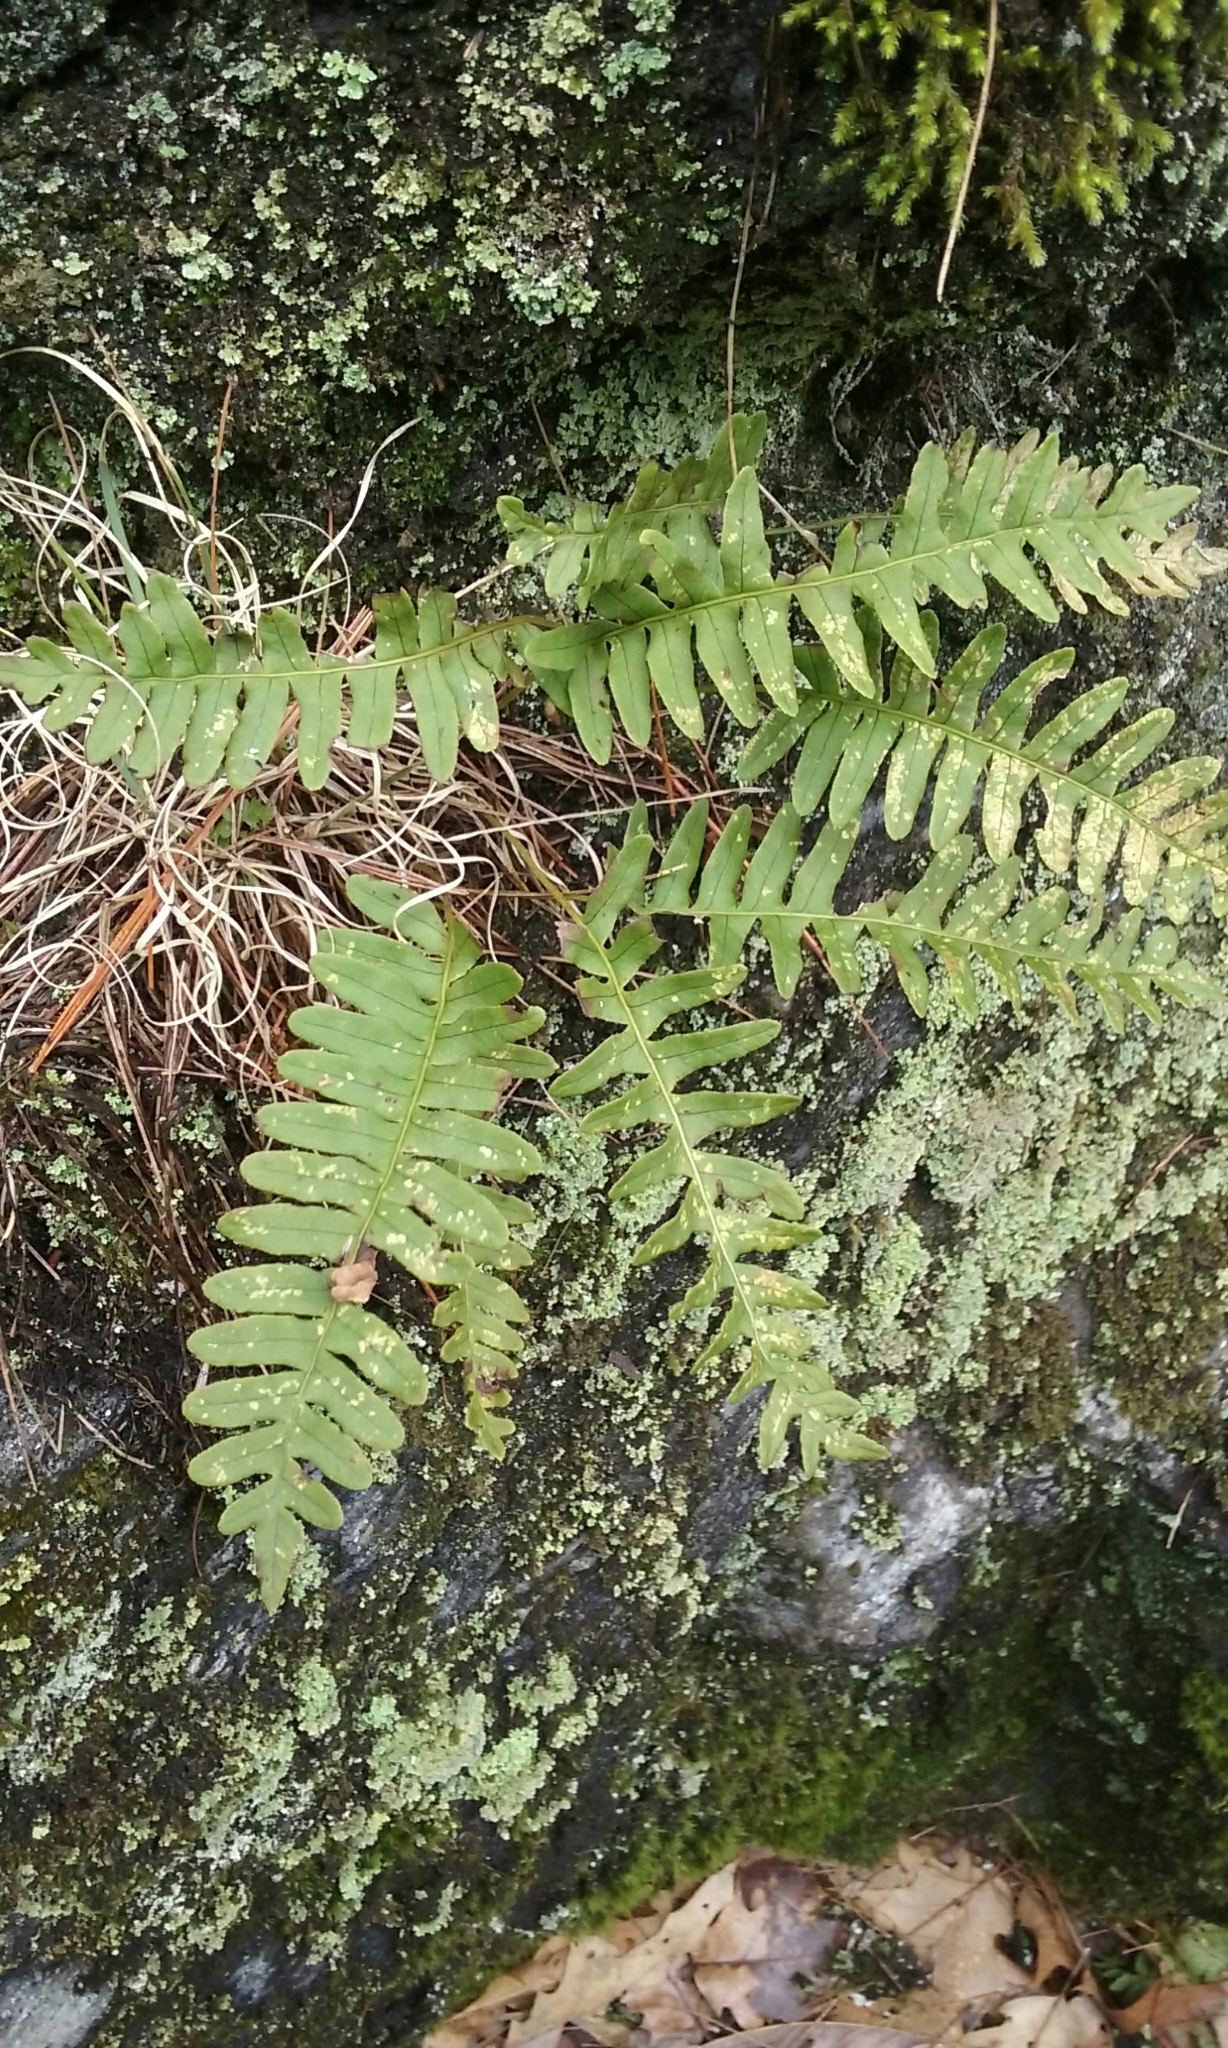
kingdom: Plantae
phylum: Tracheophyta
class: Polypodiopsida
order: Polypodiales
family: Polypodiaceae
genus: Polypodium
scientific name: Polypodium virginianum
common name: American wall fern
